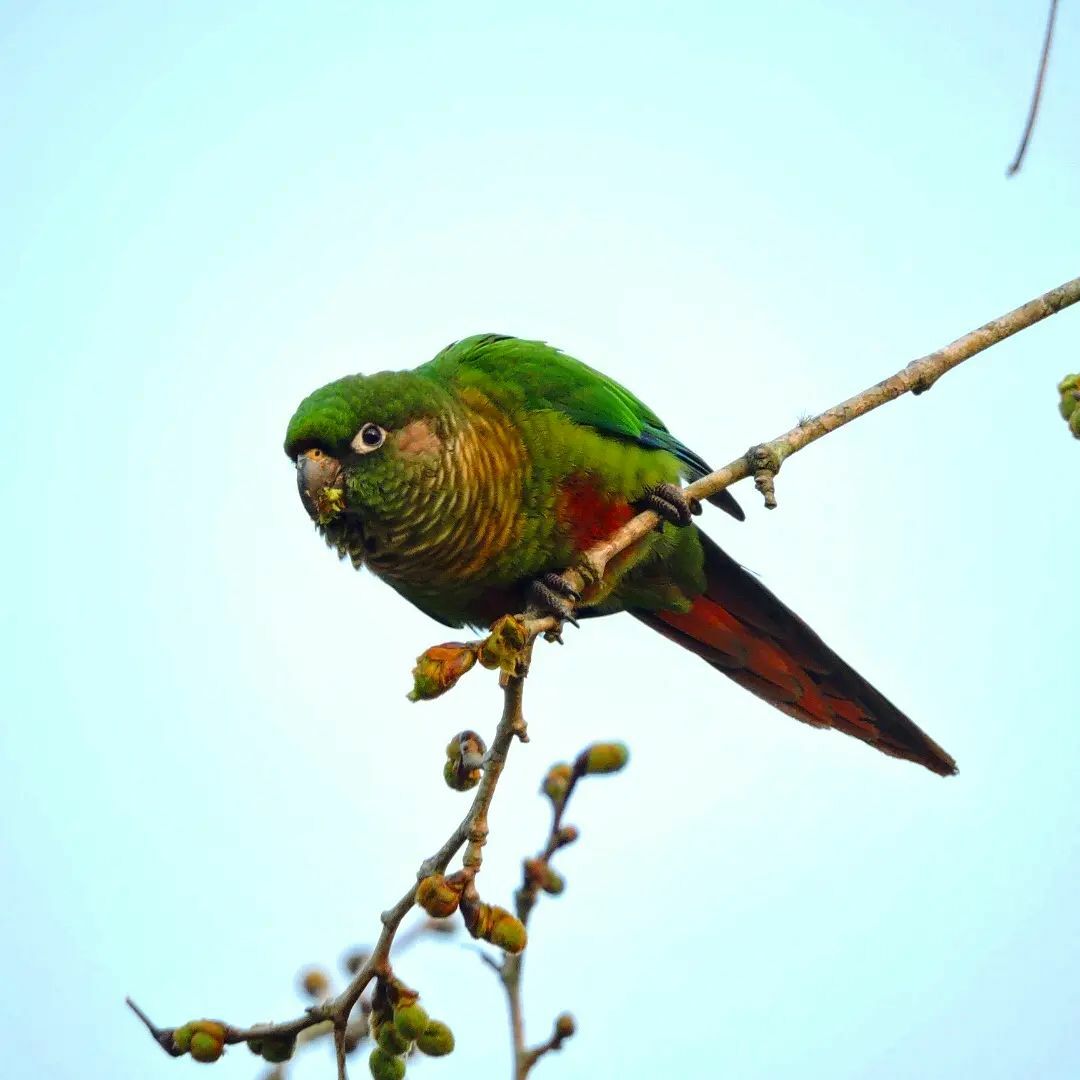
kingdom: Animalia
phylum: Chordata
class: Aves
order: Psittaciformes
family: Psittacidae
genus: Pyrrhura
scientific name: Pyrrhura frontalis
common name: Maroon-bellied parakeet
